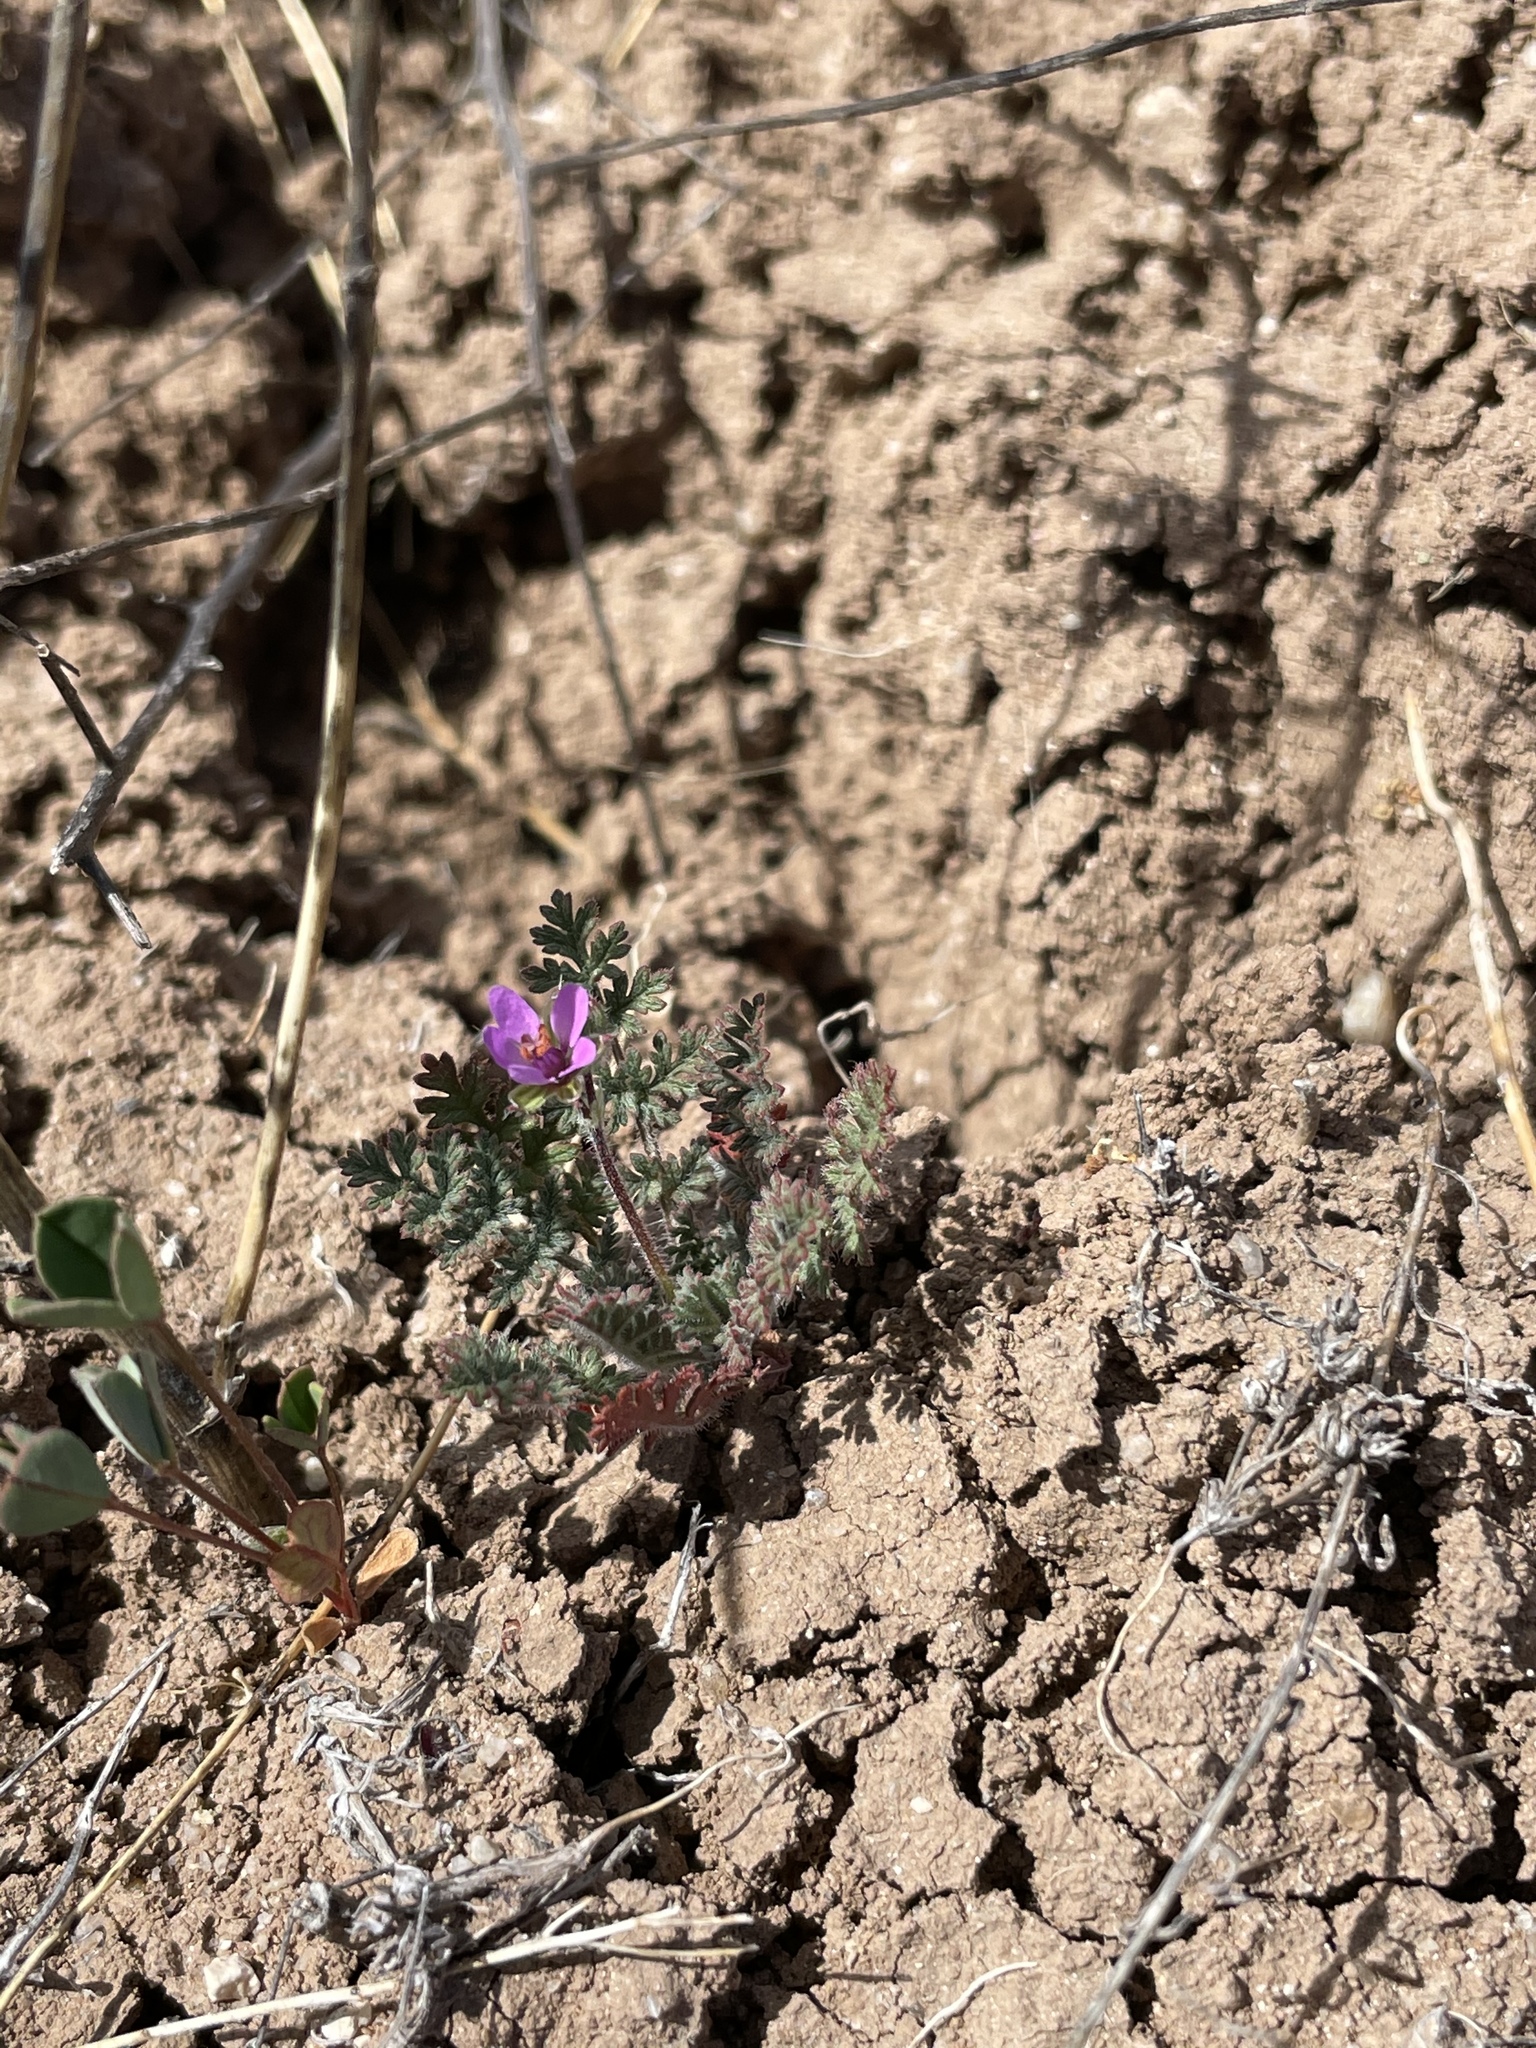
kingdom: Plantae
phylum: Tracheophyta
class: Magnoliopsida
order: Geraniales
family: Geraniaceae
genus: Erodium
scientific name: Erodium cicutarium
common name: Common stork's-bill
